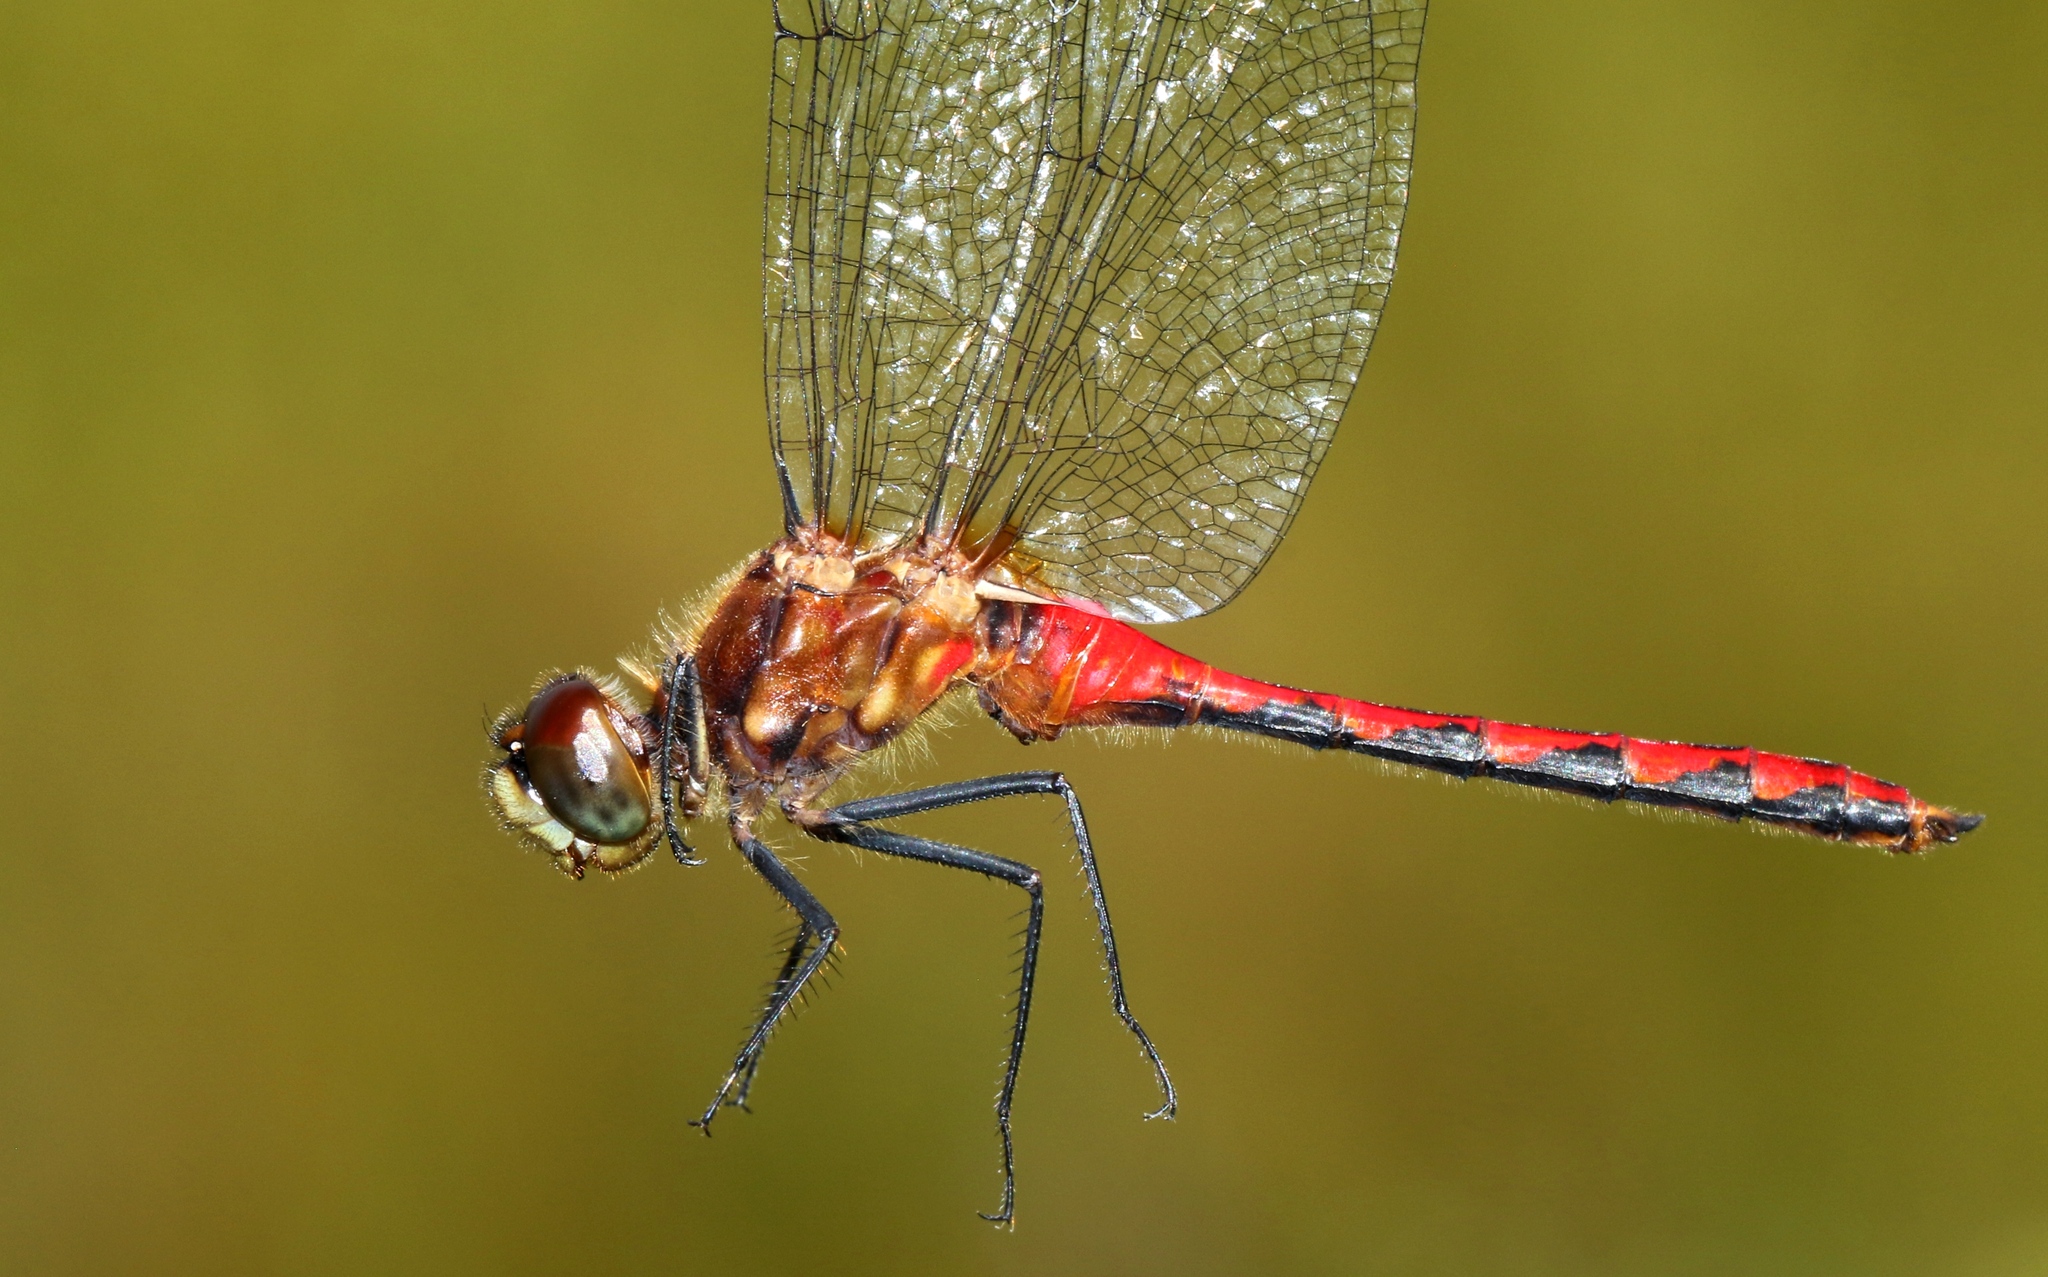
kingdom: Animalia
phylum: Arthropoda
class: Insecta
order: Odonata
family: Libellulidae
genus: Sympetrum
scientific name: Sympetrum obtrusum
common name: White-faced meadowhawk
